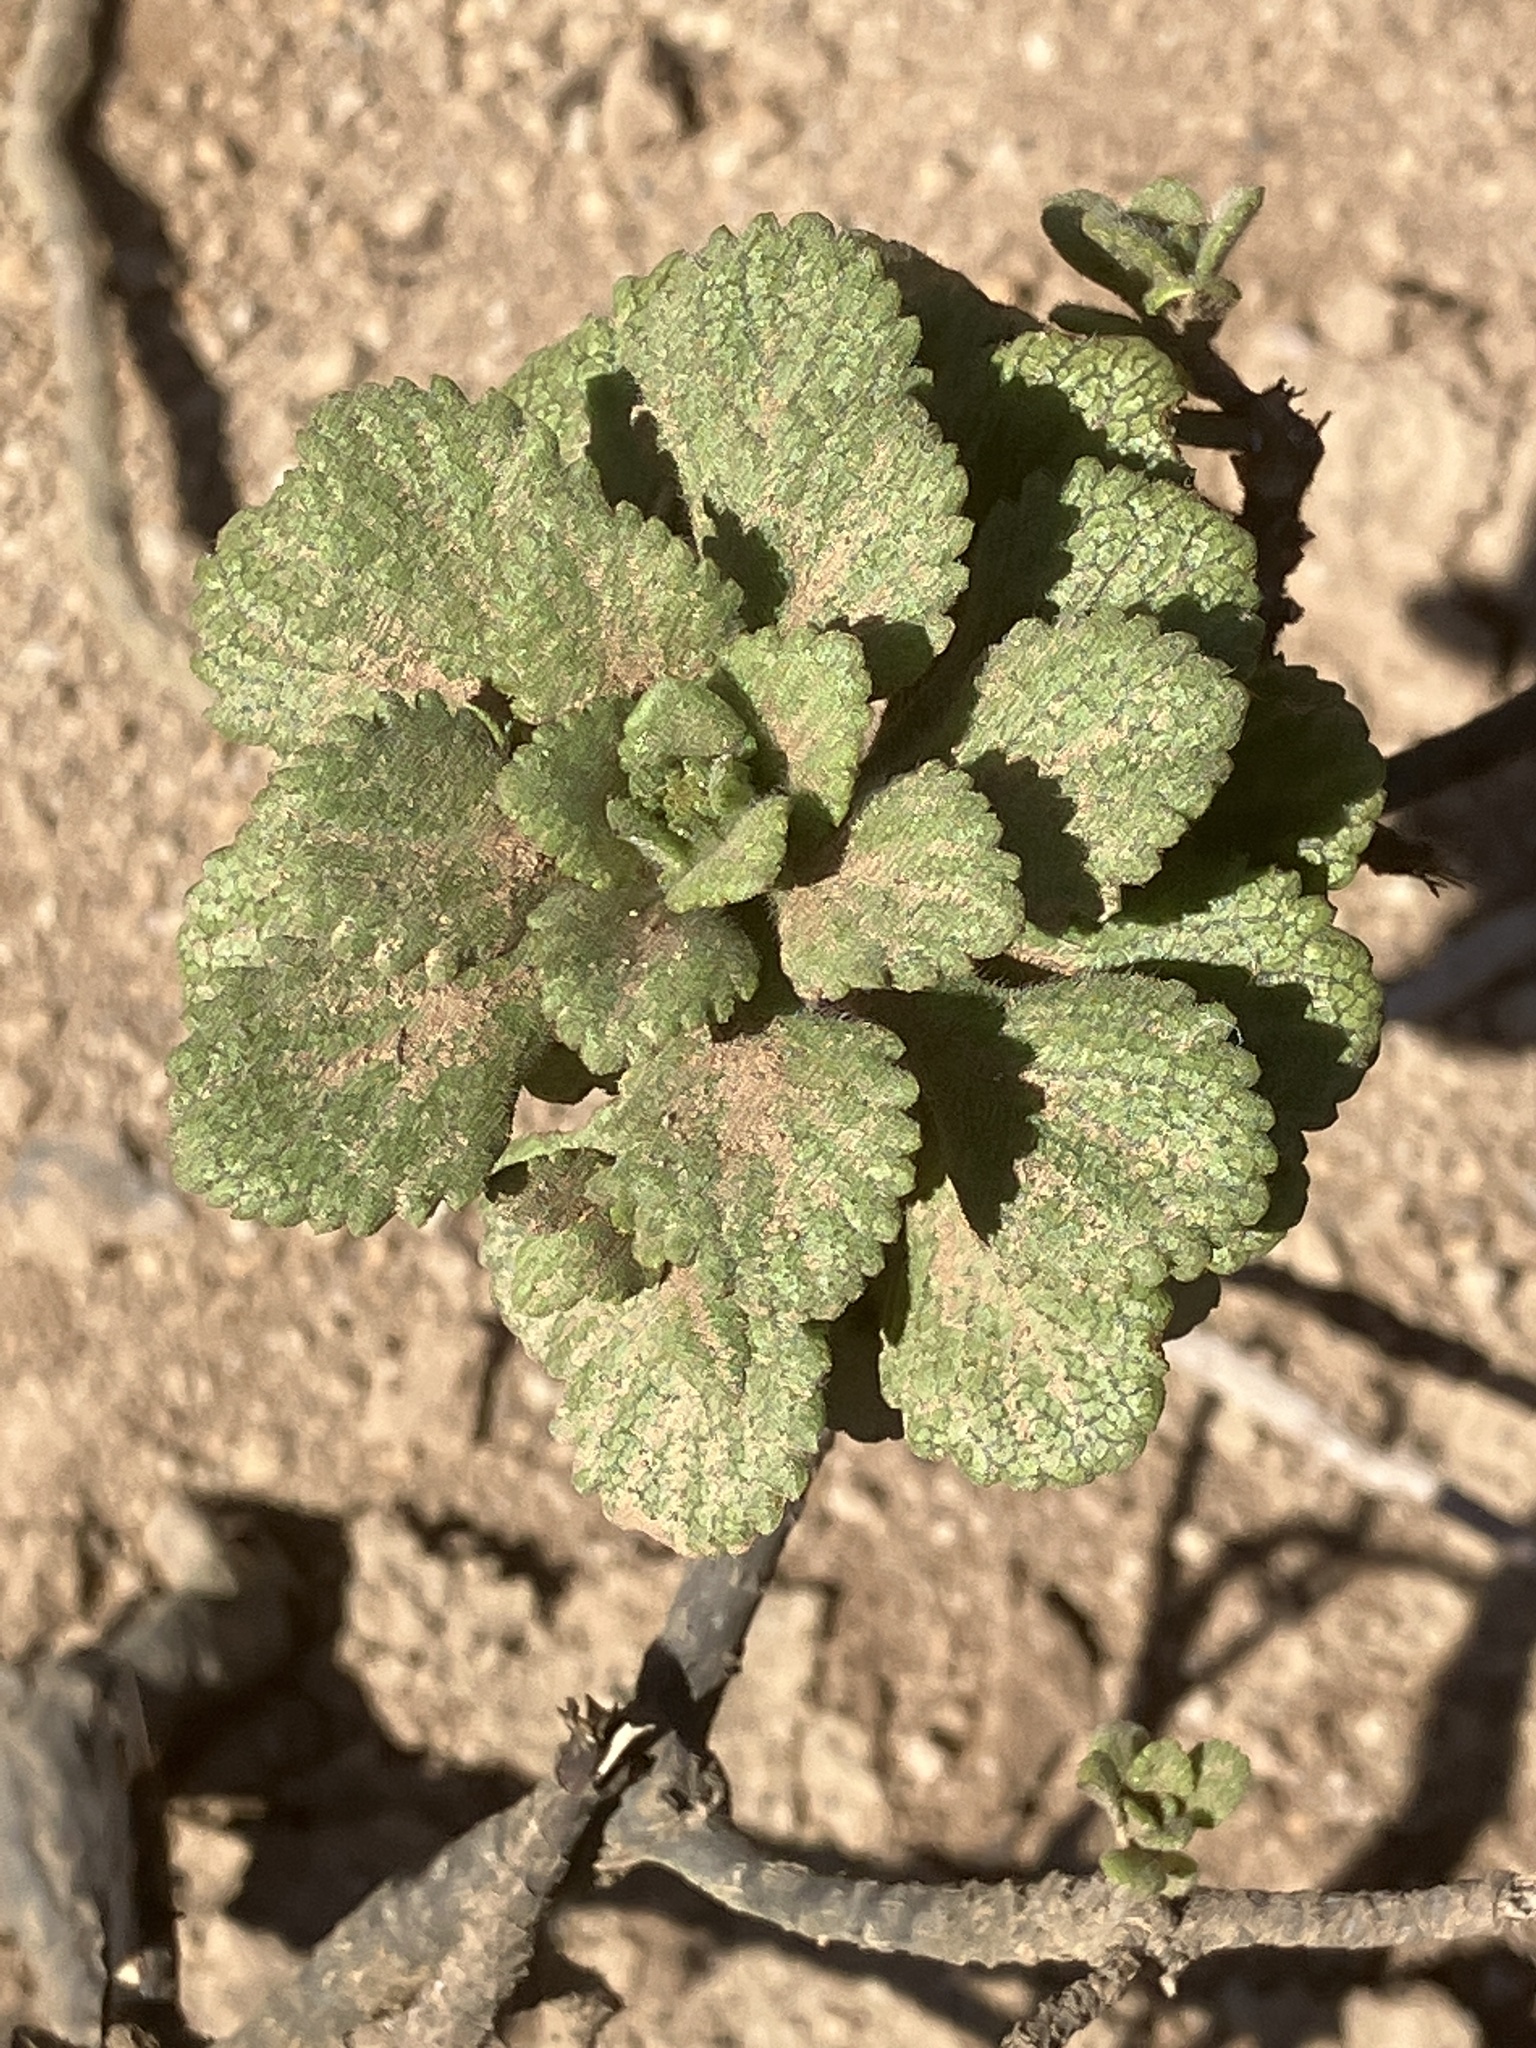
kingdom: Plantae
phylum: Tracheophyta
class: Magnoliopsida
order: Asterales
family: Asteraceae
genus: Commidendrum
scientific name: Commidendrum rugosum
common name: Scrubwood
